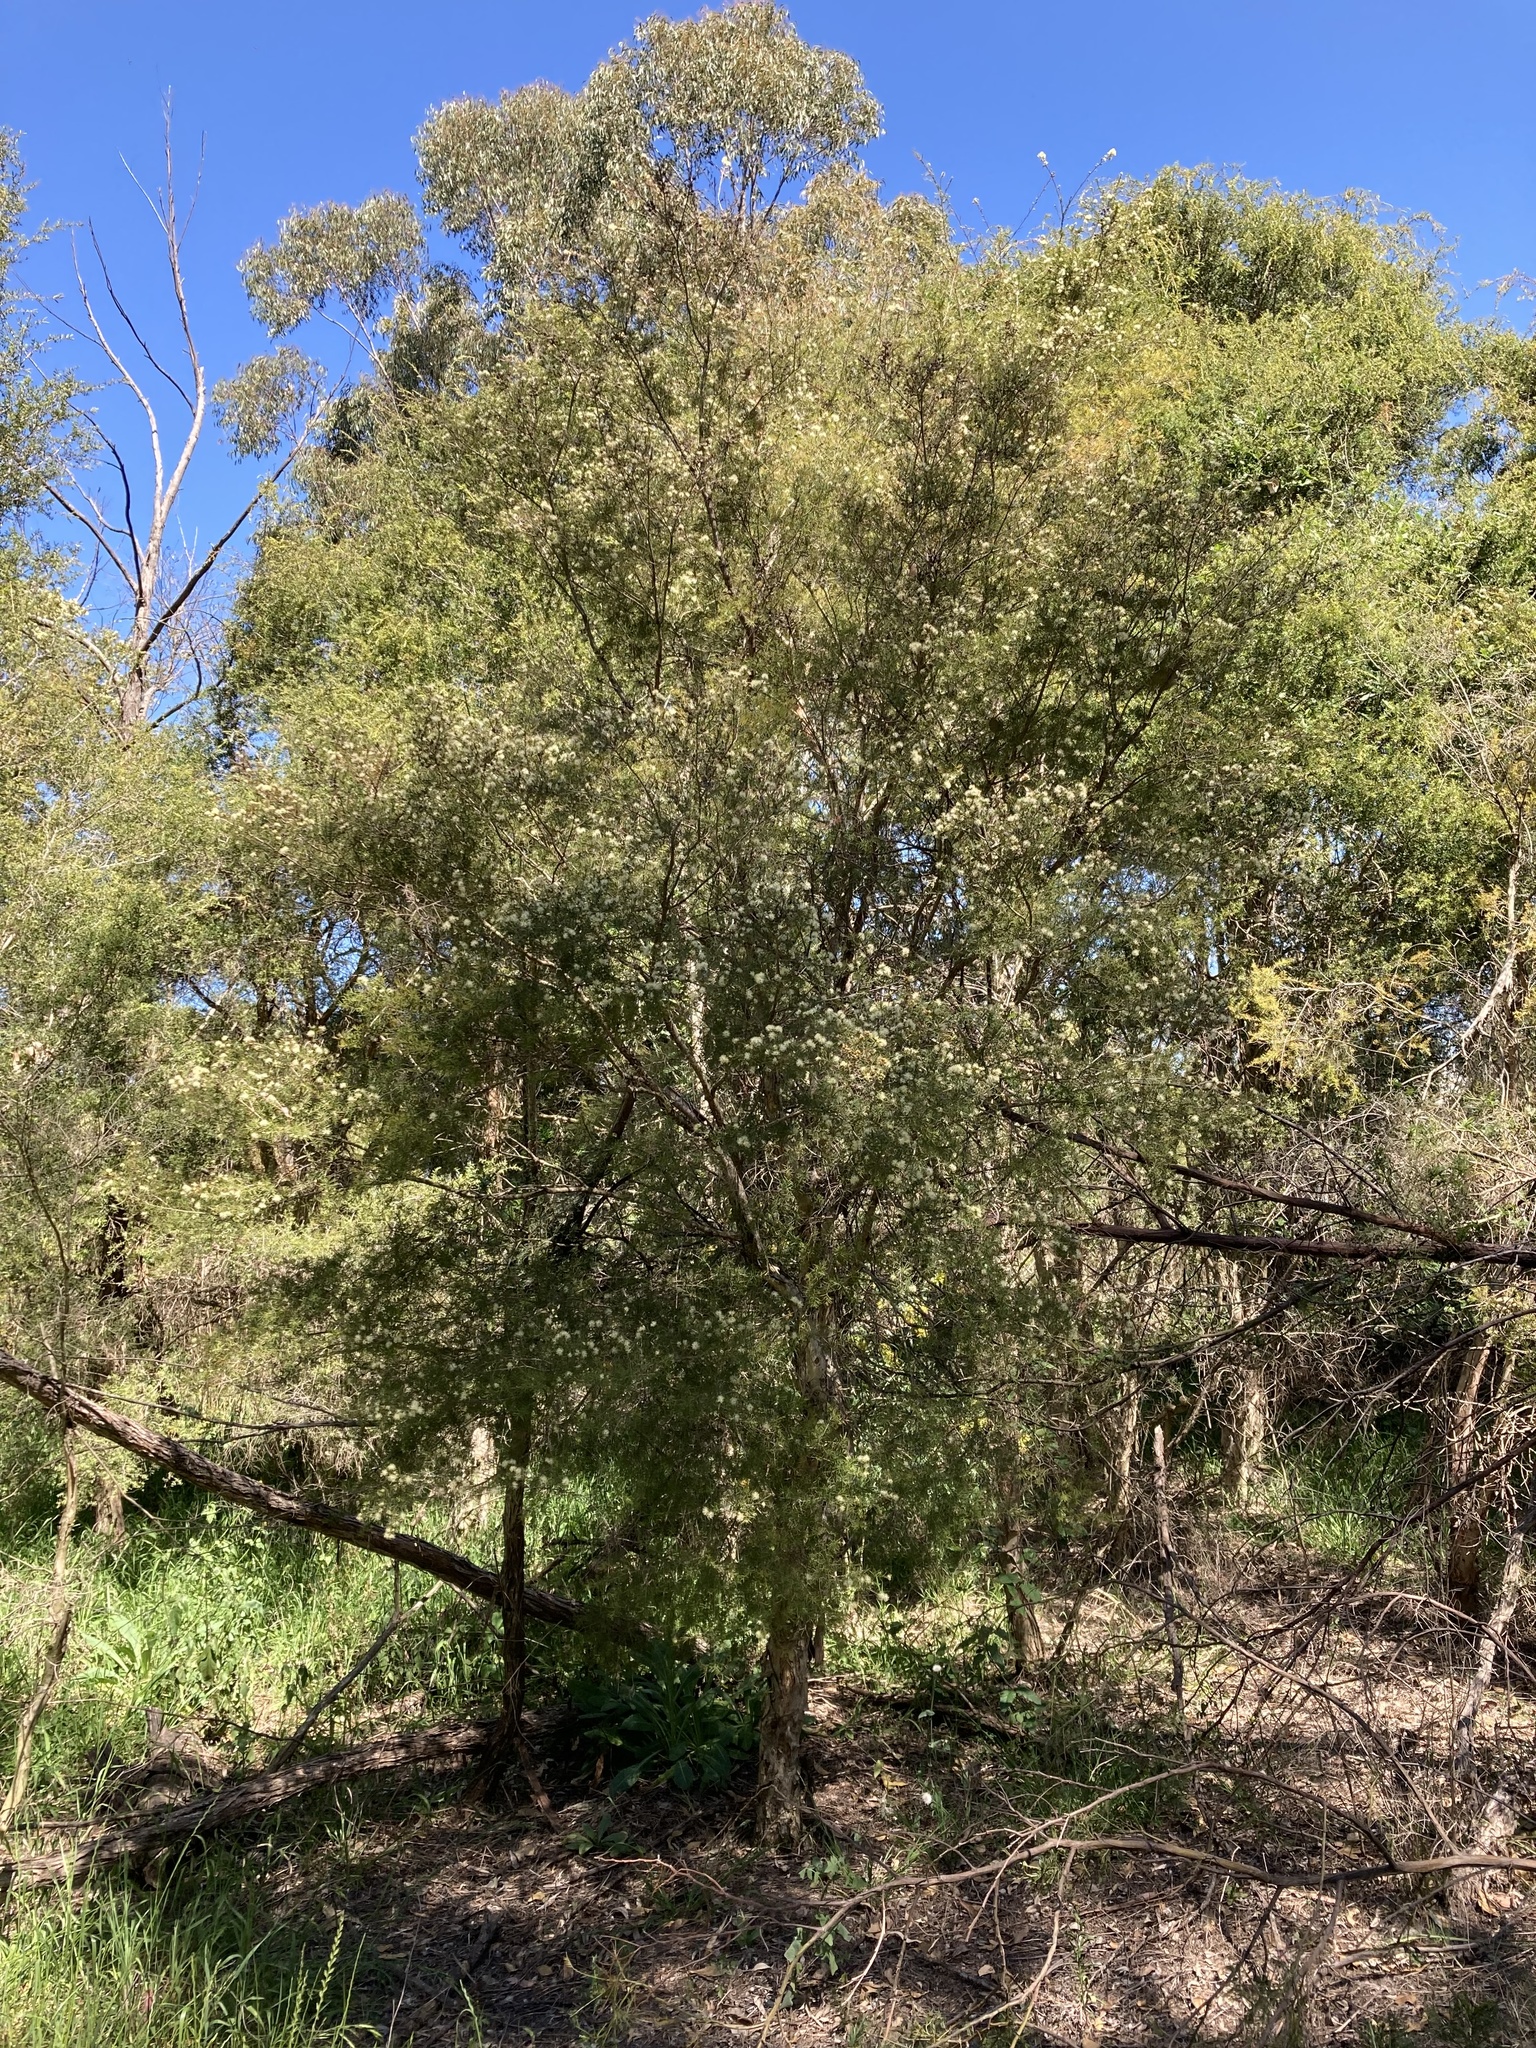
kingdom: Plantae
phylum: Tracheophyta
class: Magnoliopsida
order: Myrtales
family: Myrtaceae
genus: Melaleuca
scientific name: Melaleuca nodosa
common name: Prickly-leaf paperbark
